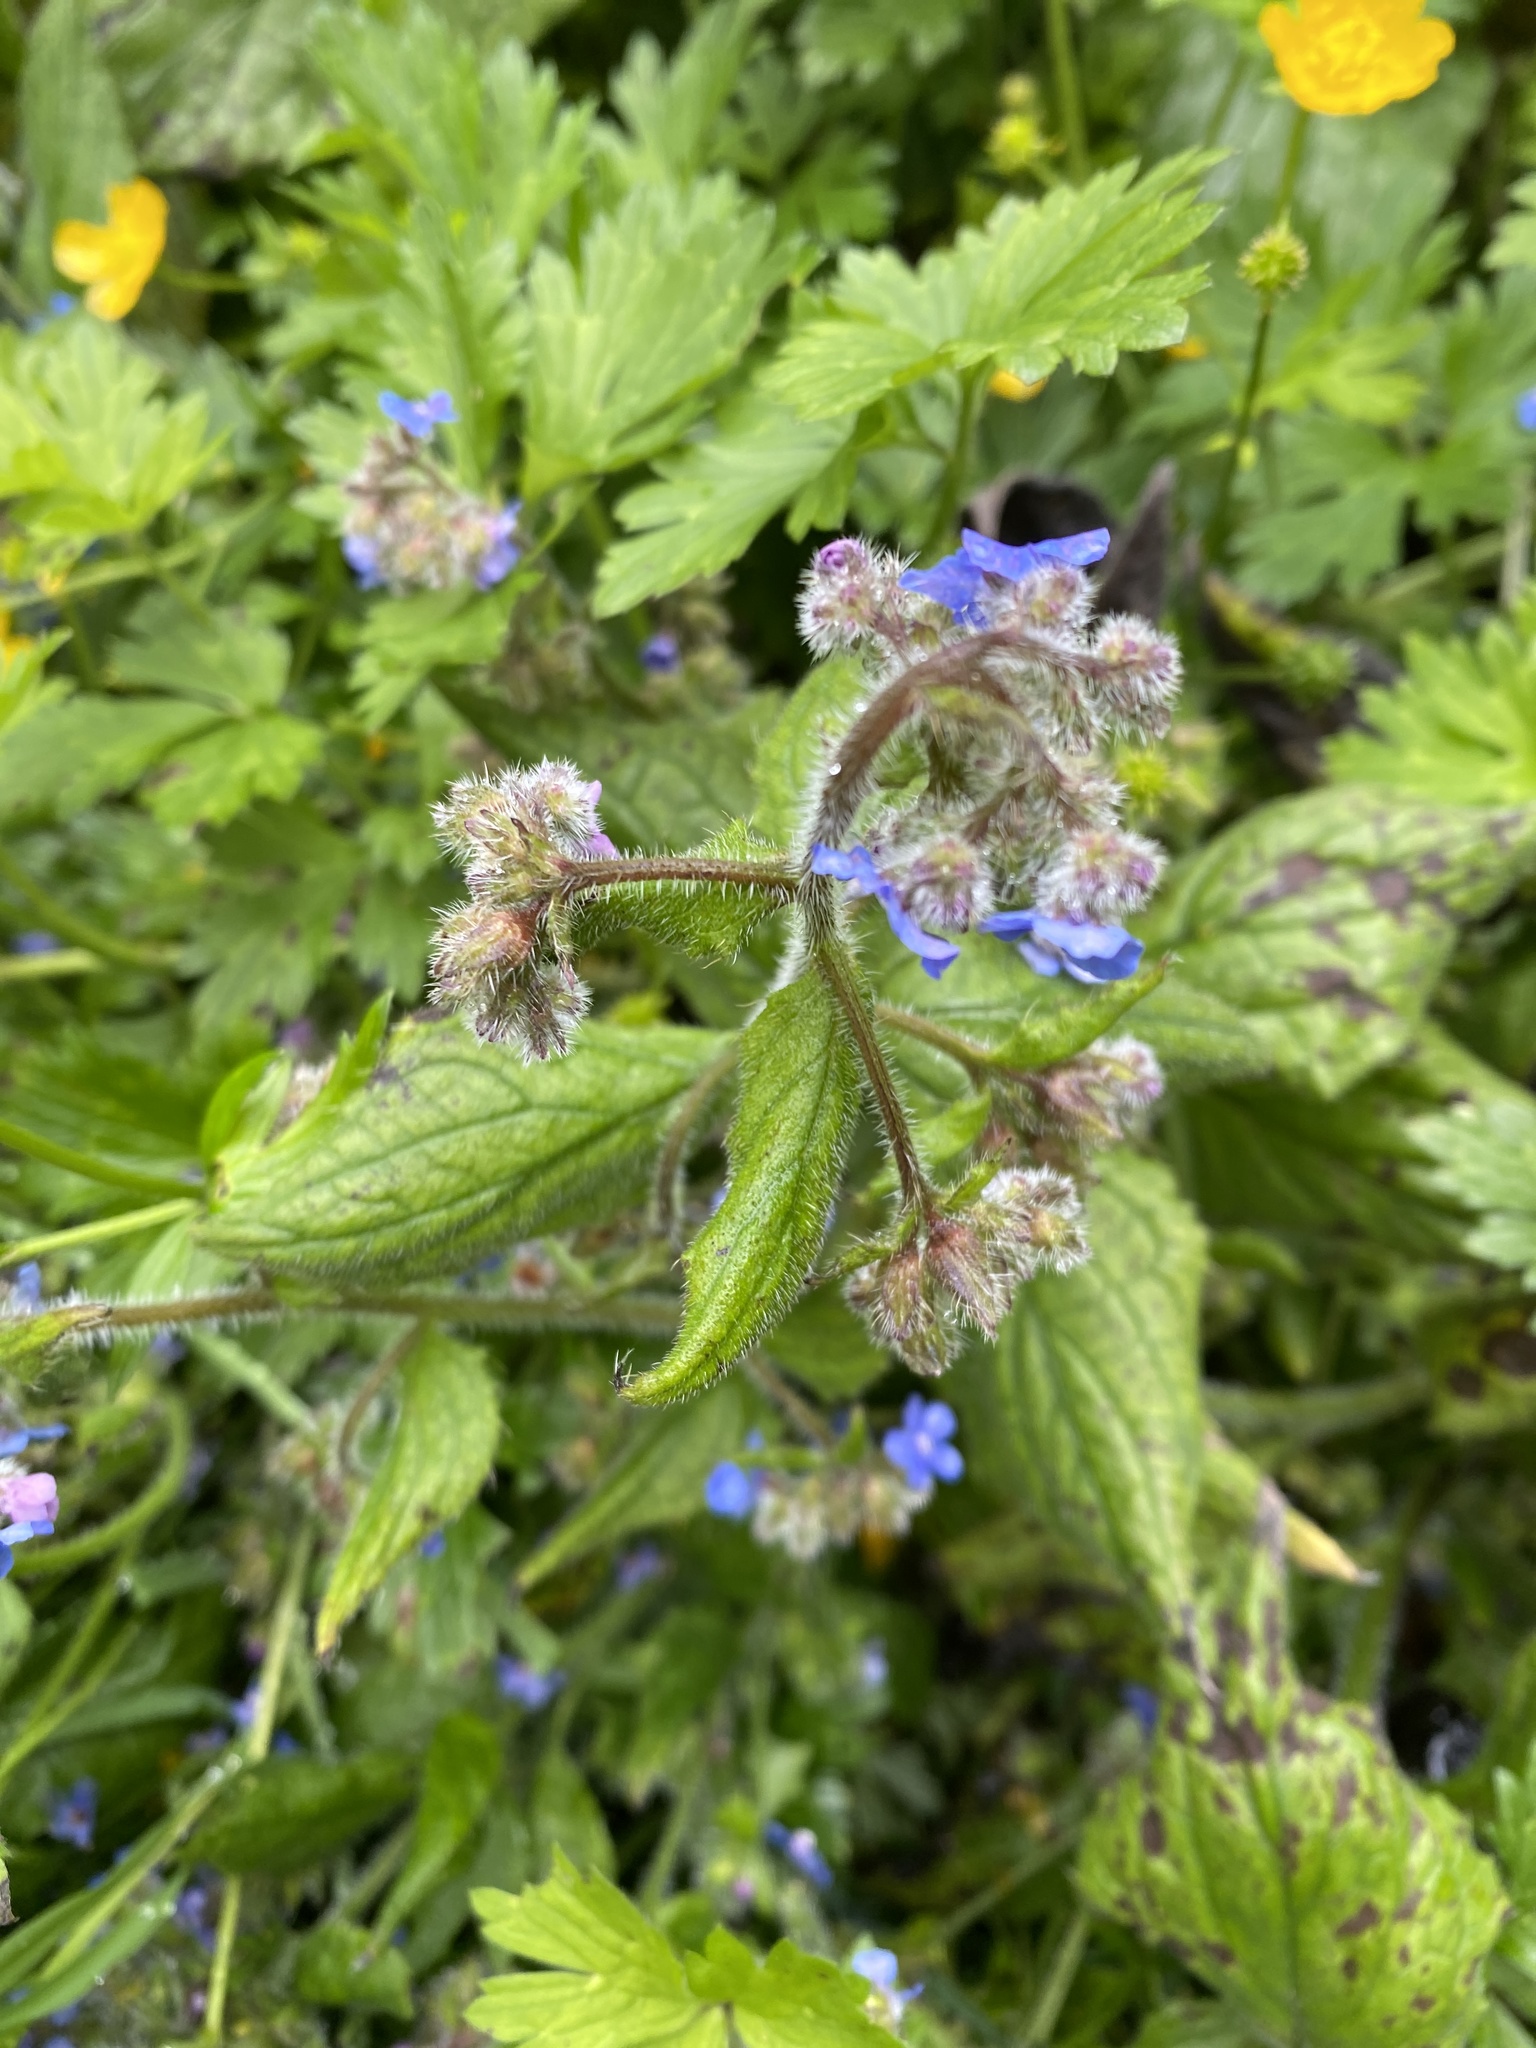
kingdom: Plantae
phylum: Tracheophyta
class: Magnoliopsida
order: Boraginales
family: Boraginaceae
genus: Borago
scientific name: Borago officinalis
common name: Borage
